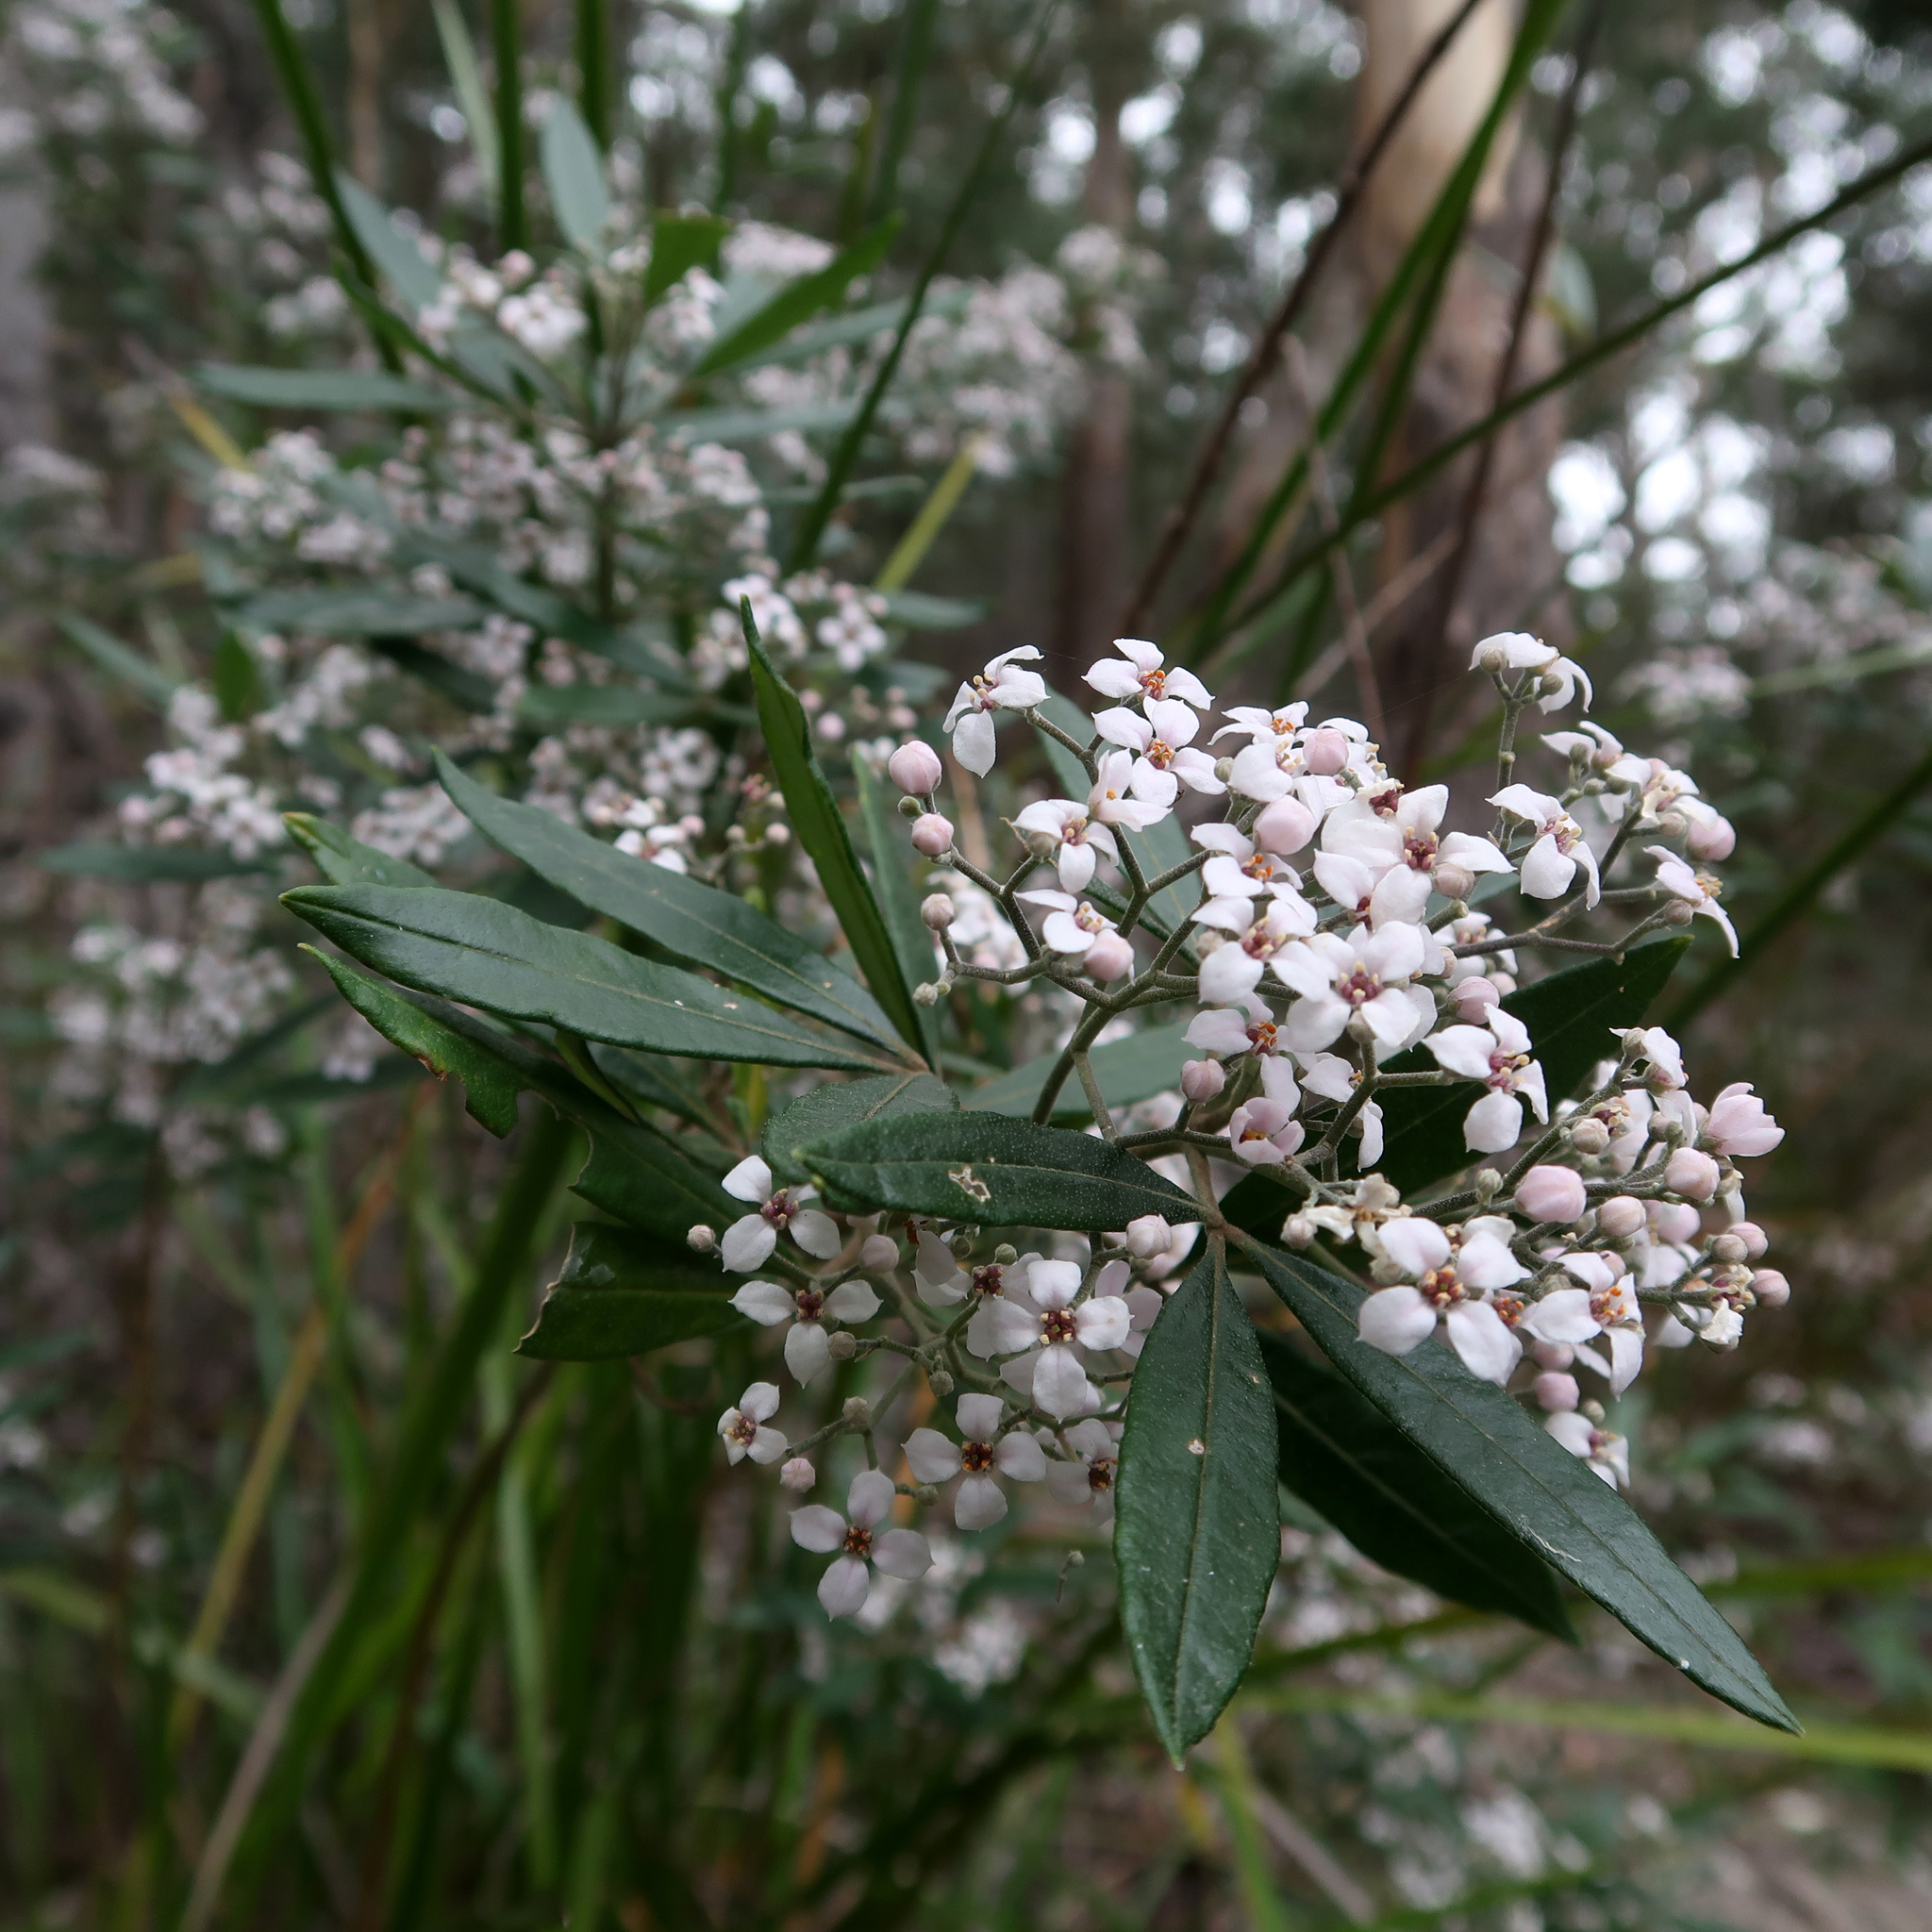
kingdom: Plantae
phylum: Tracheophyta
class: Magnoliopsida
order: Sapindales
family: Rutaceae
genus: Zieria
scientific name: Zieria arborescens
